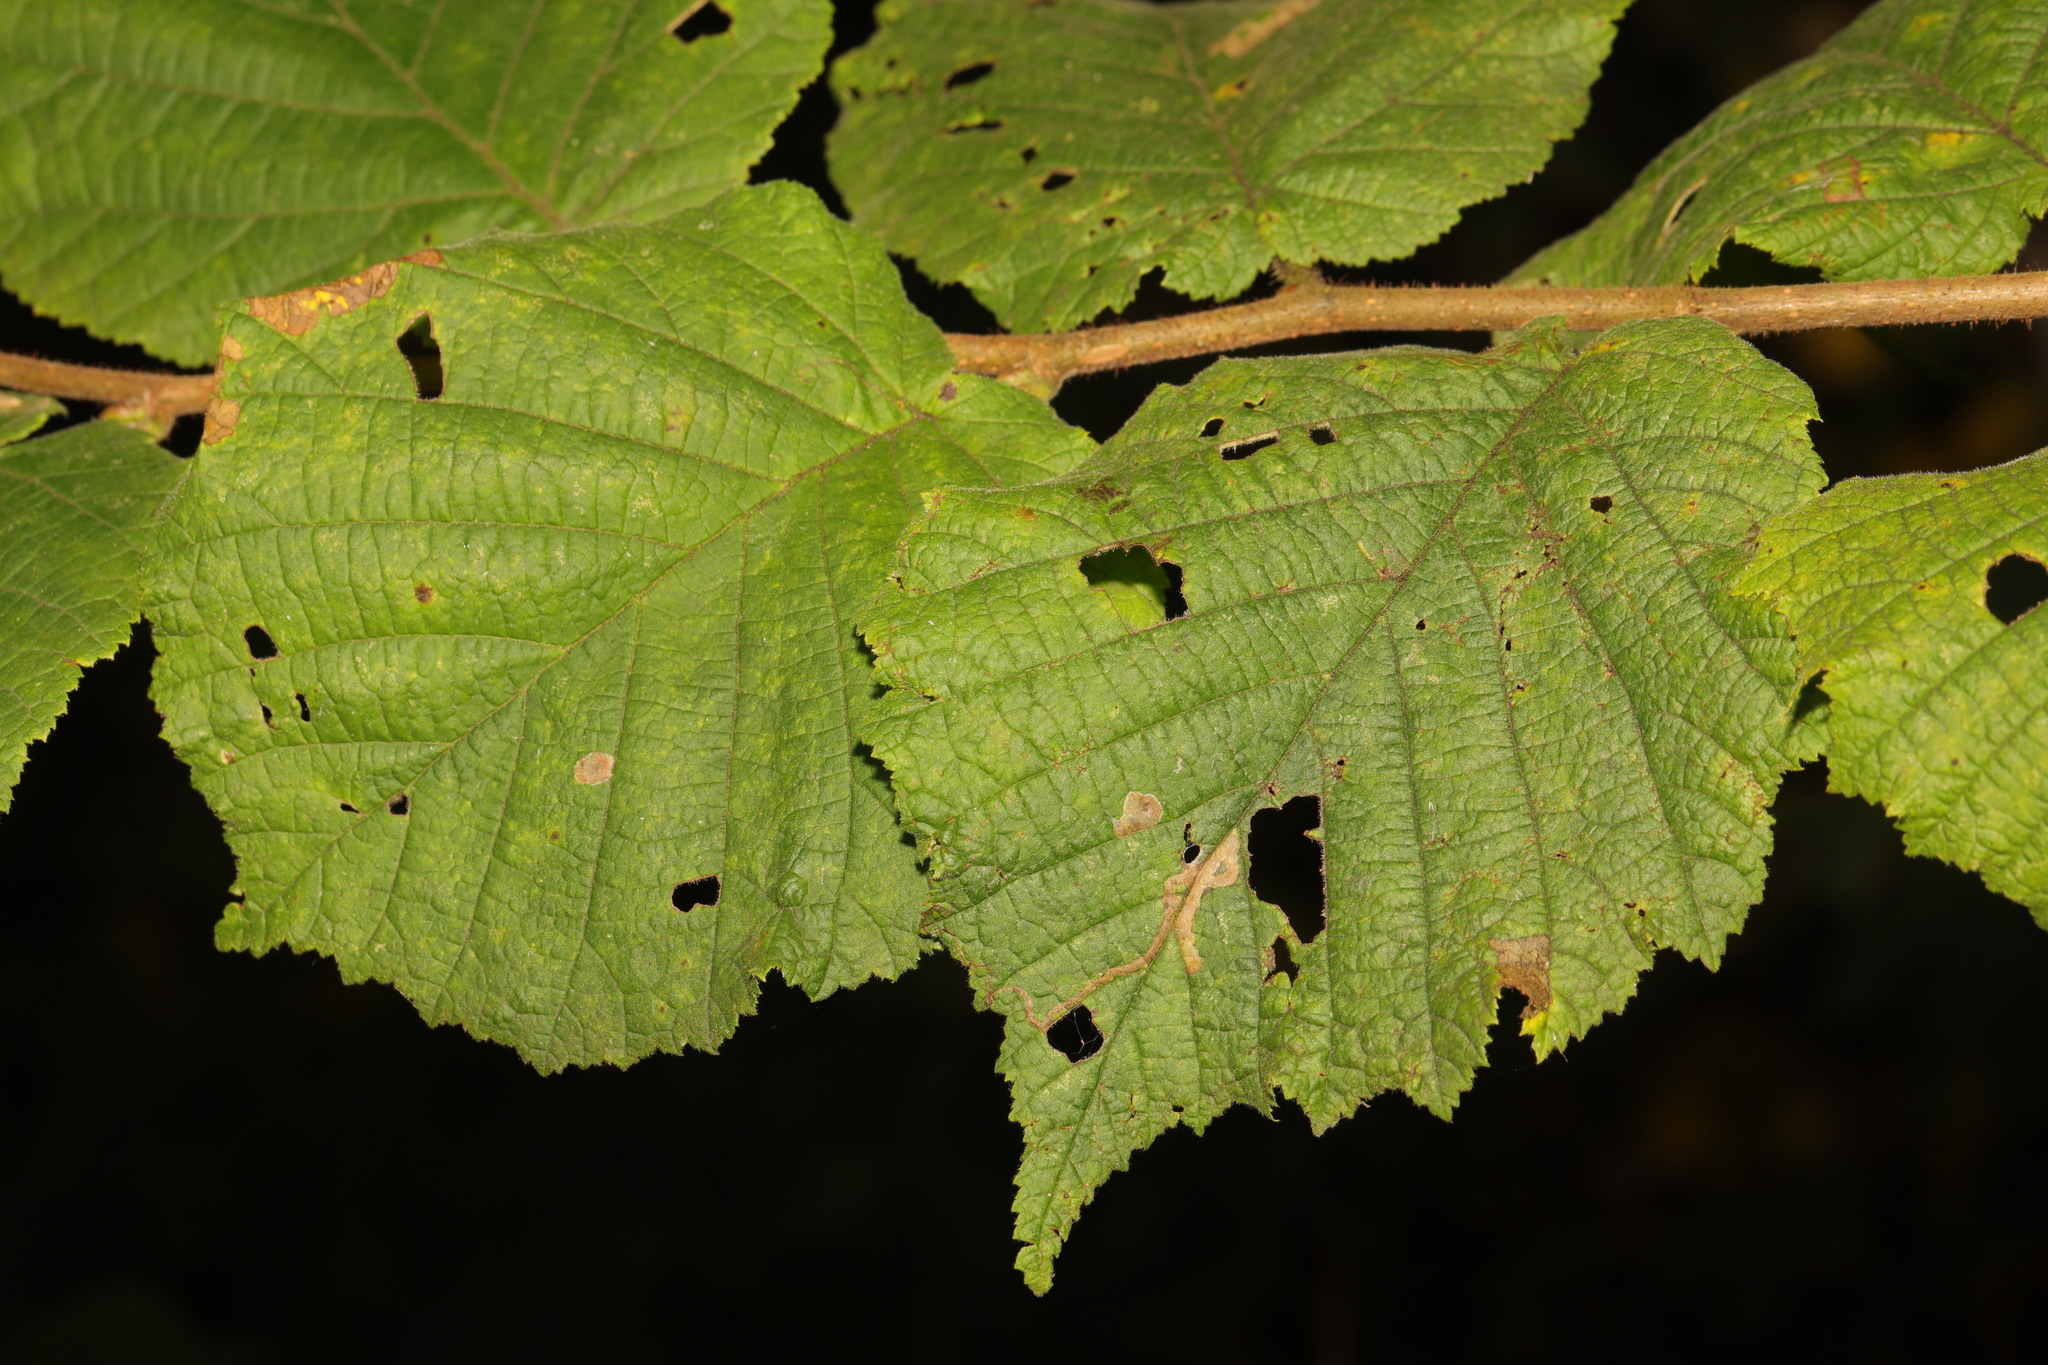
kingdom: Plantae
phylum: Tracheophyta
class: Magnoliopsida
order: Fagales
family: Betulaceae
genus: Corylus
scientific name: Corylus avellana
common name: European hazel
